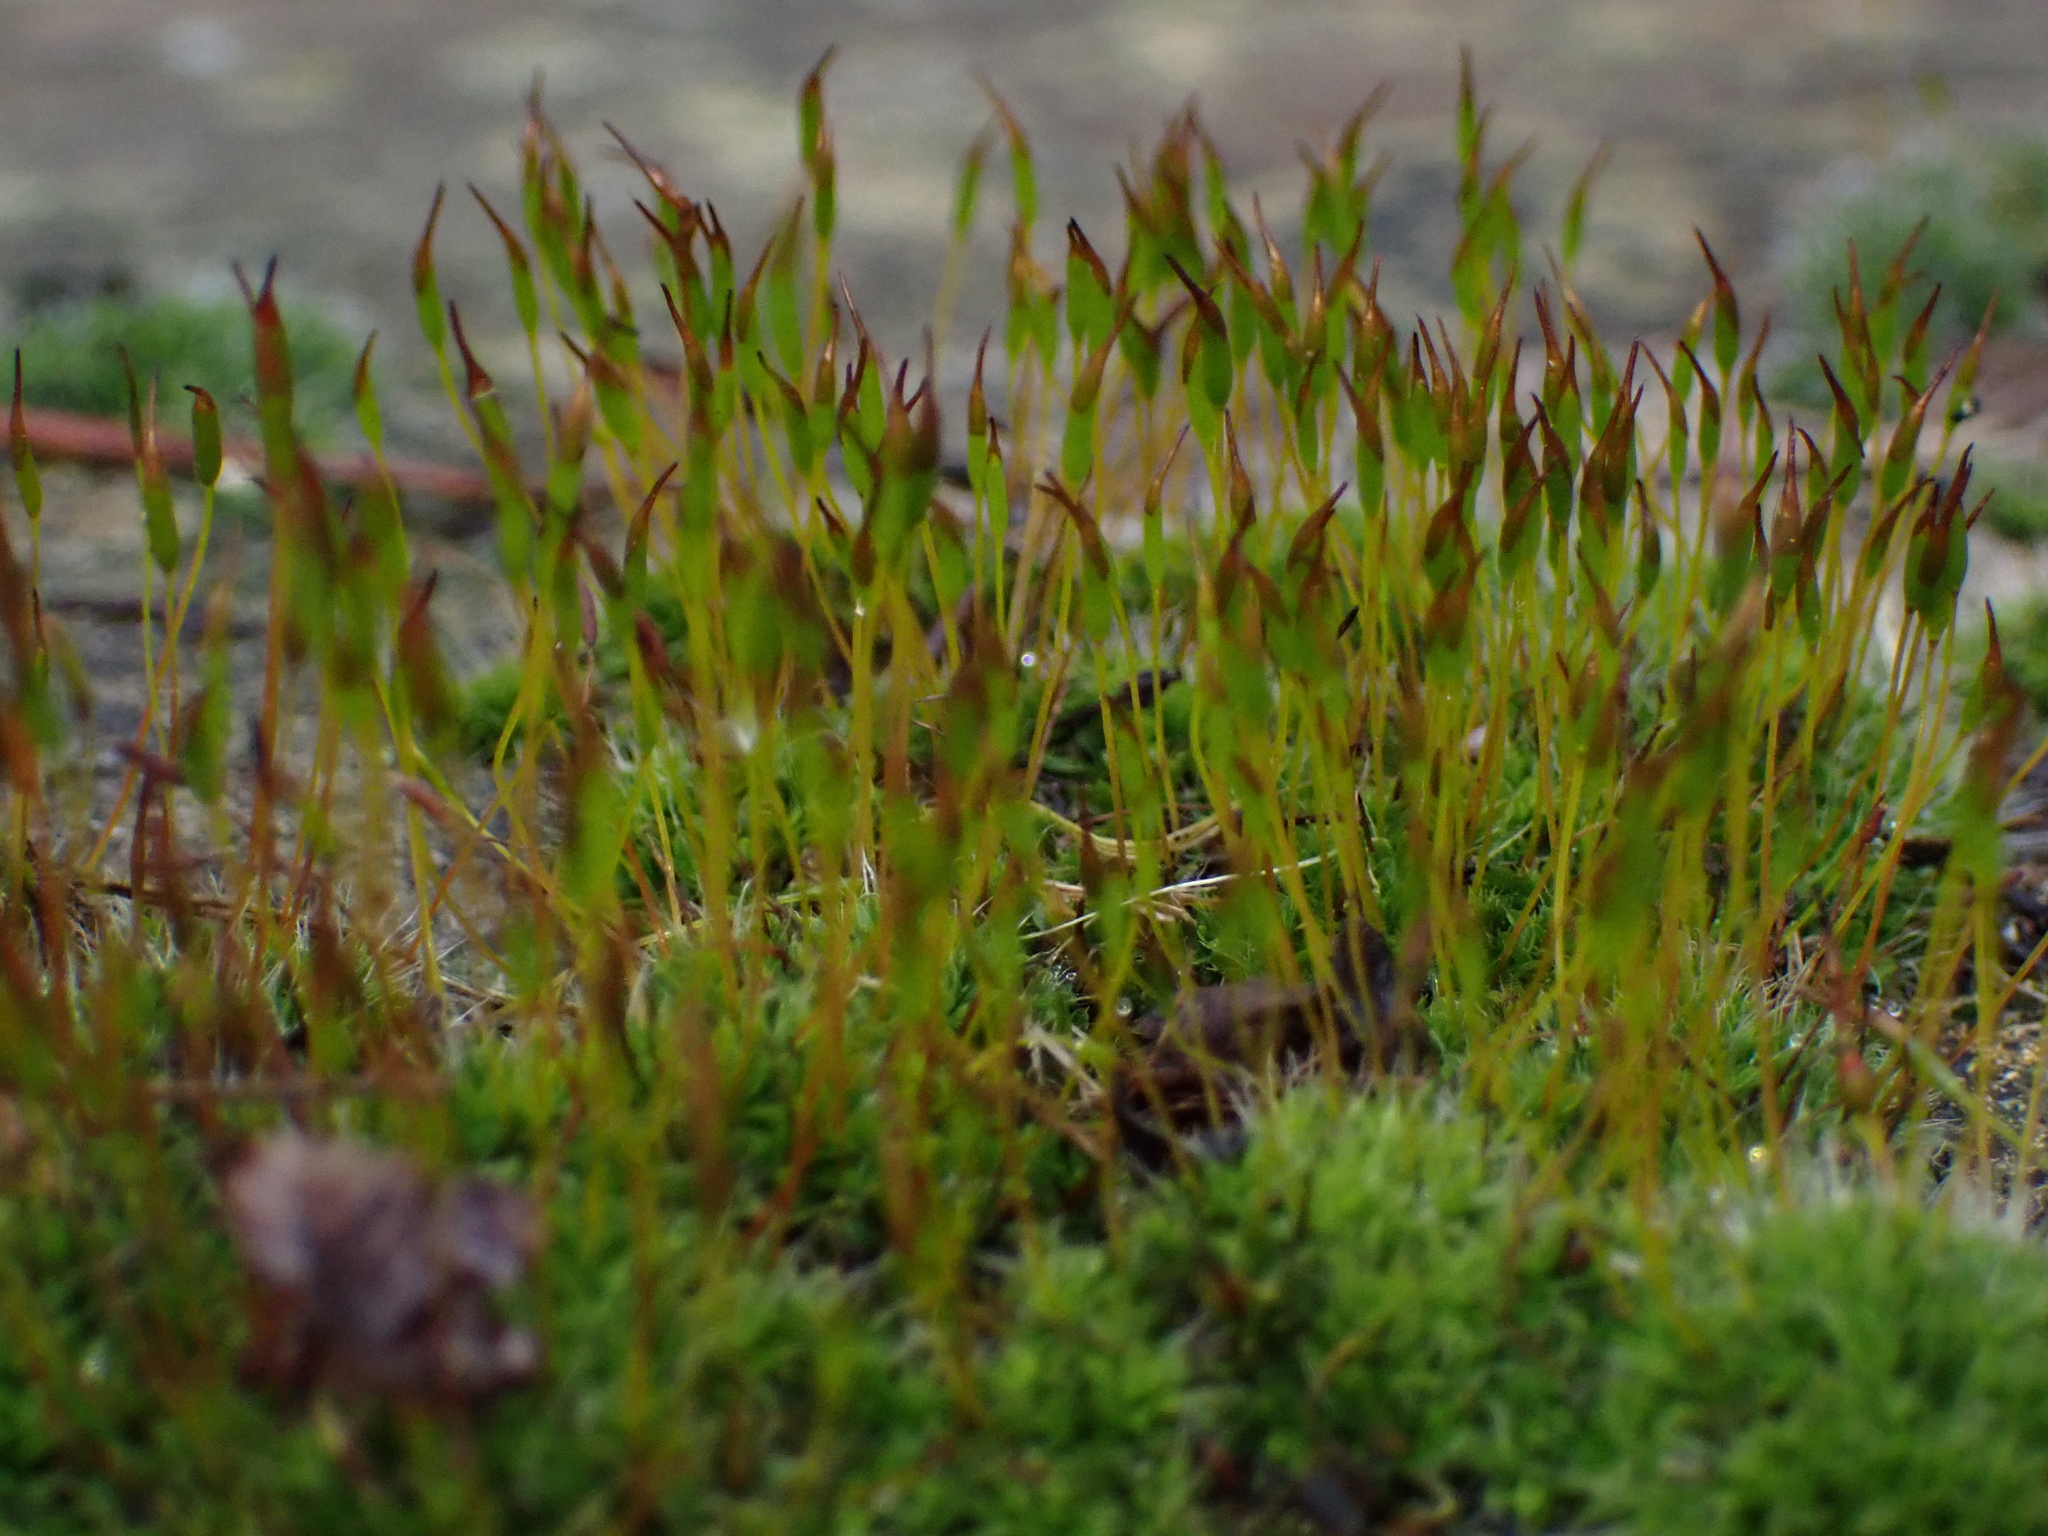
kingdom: Plantae
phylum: Bryophyta
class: Bryopsida
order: Pottiales
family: Pottiaceae
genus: Tortula
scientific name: Tortula muralis
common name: Wall screw-moss
